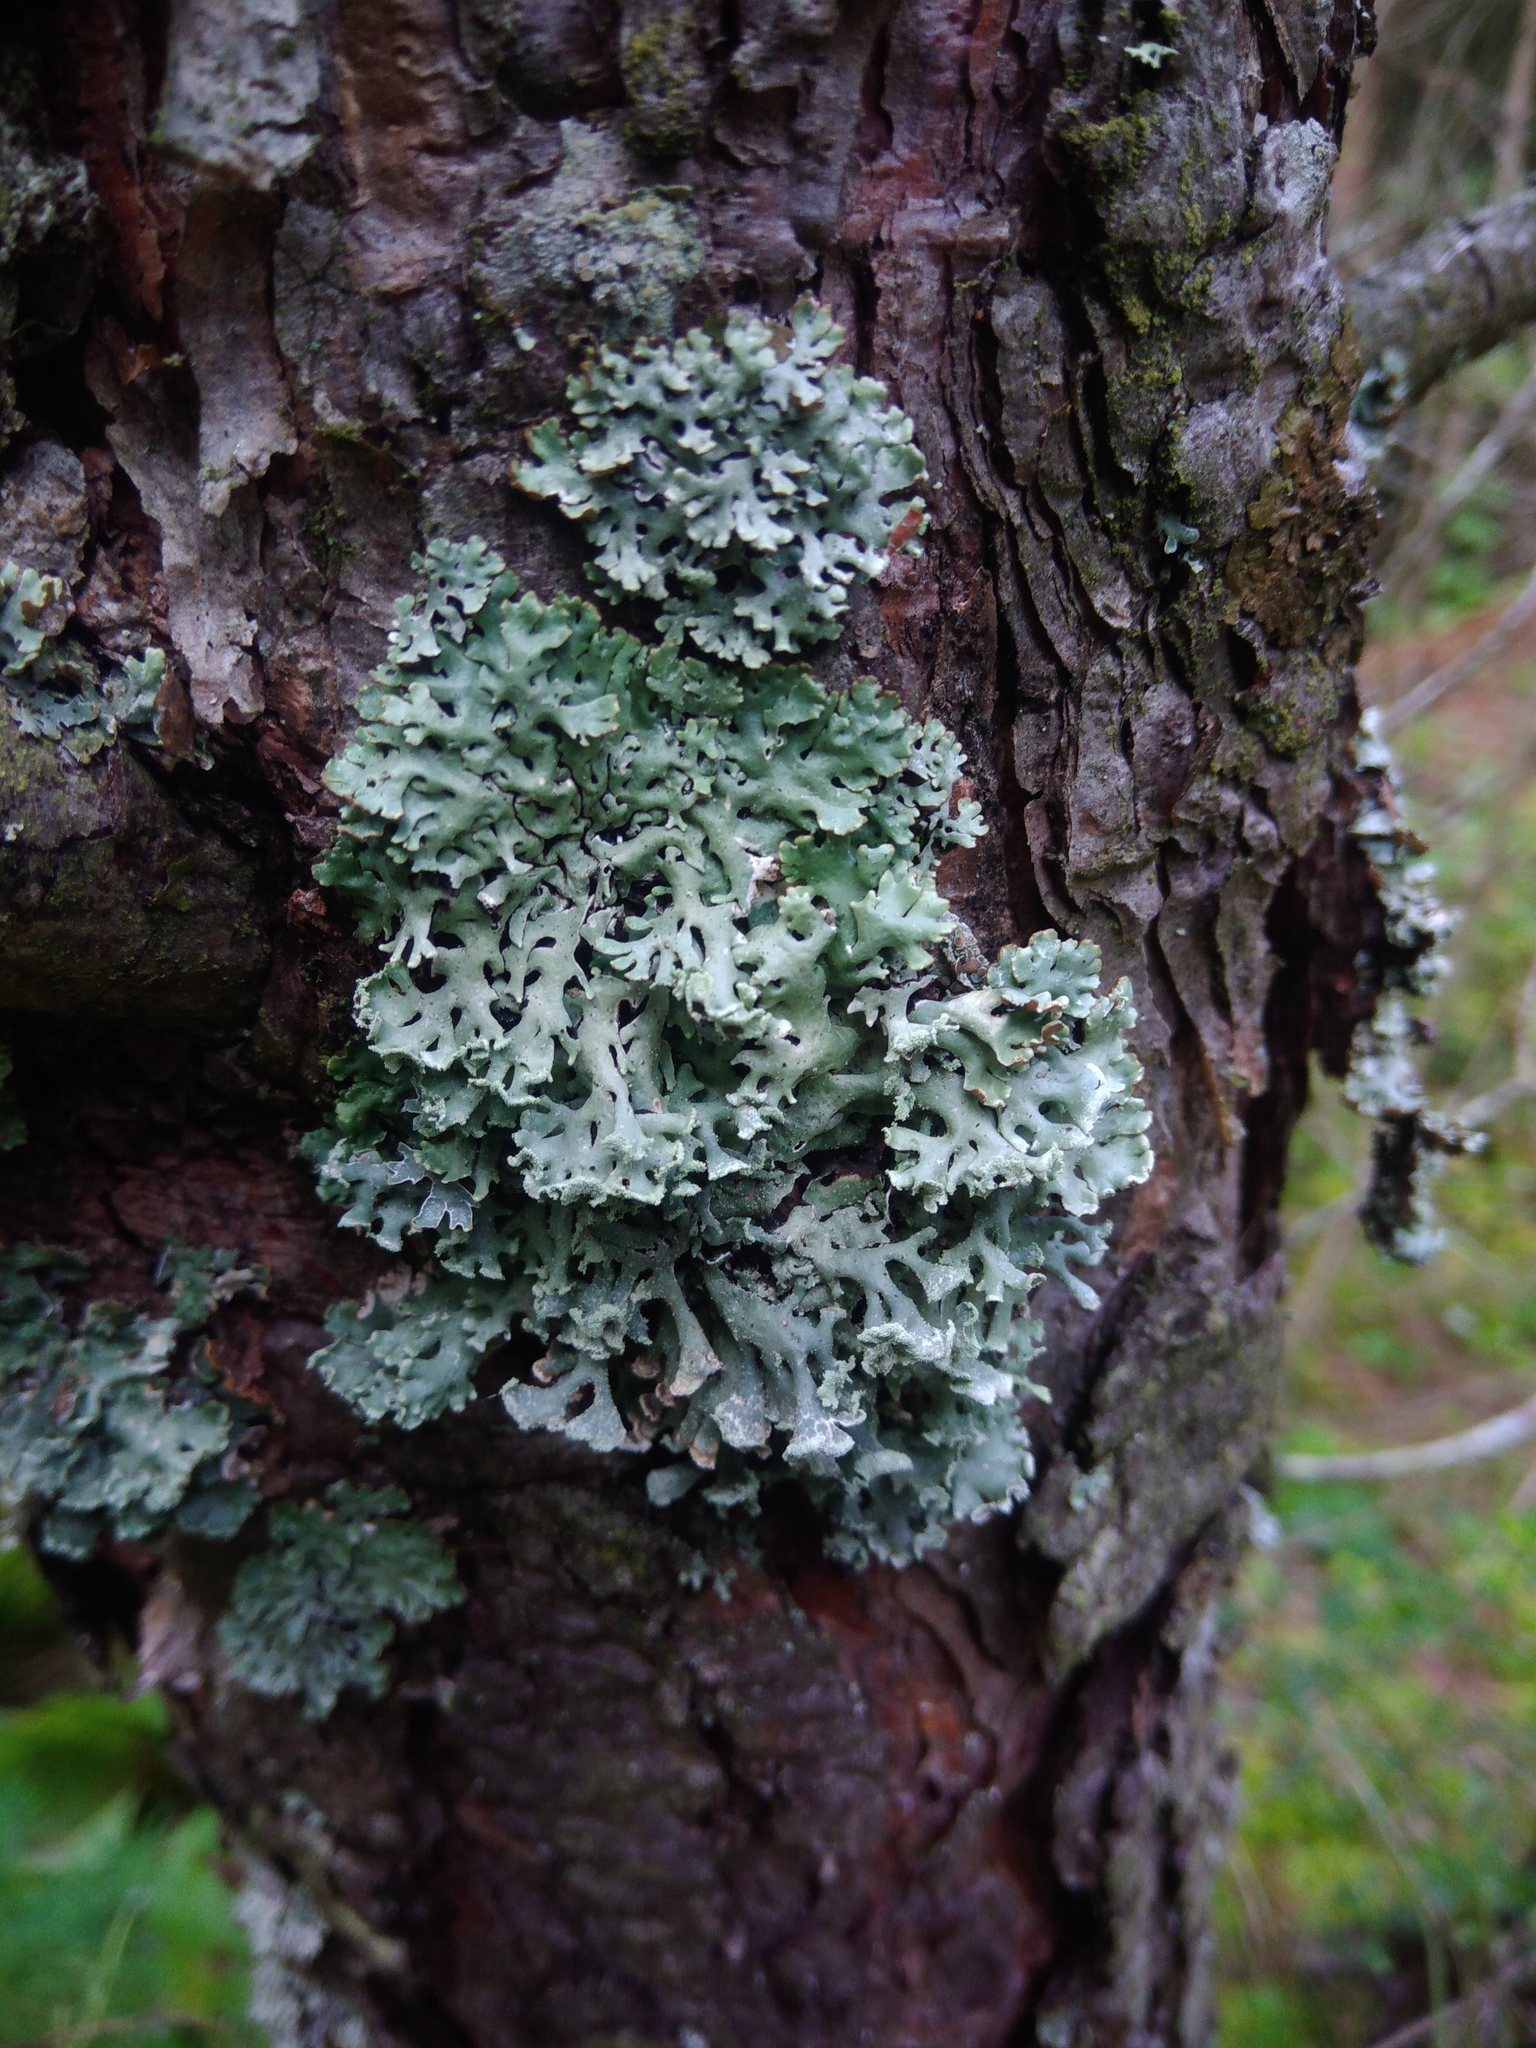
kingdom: Fungi
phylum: Ascomycota
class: Lecanoromycetes
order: Lecanorales
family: Parmeliaceae
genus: Hypogymnia
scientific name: Hypogymnia physodes
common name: Dark crottle
